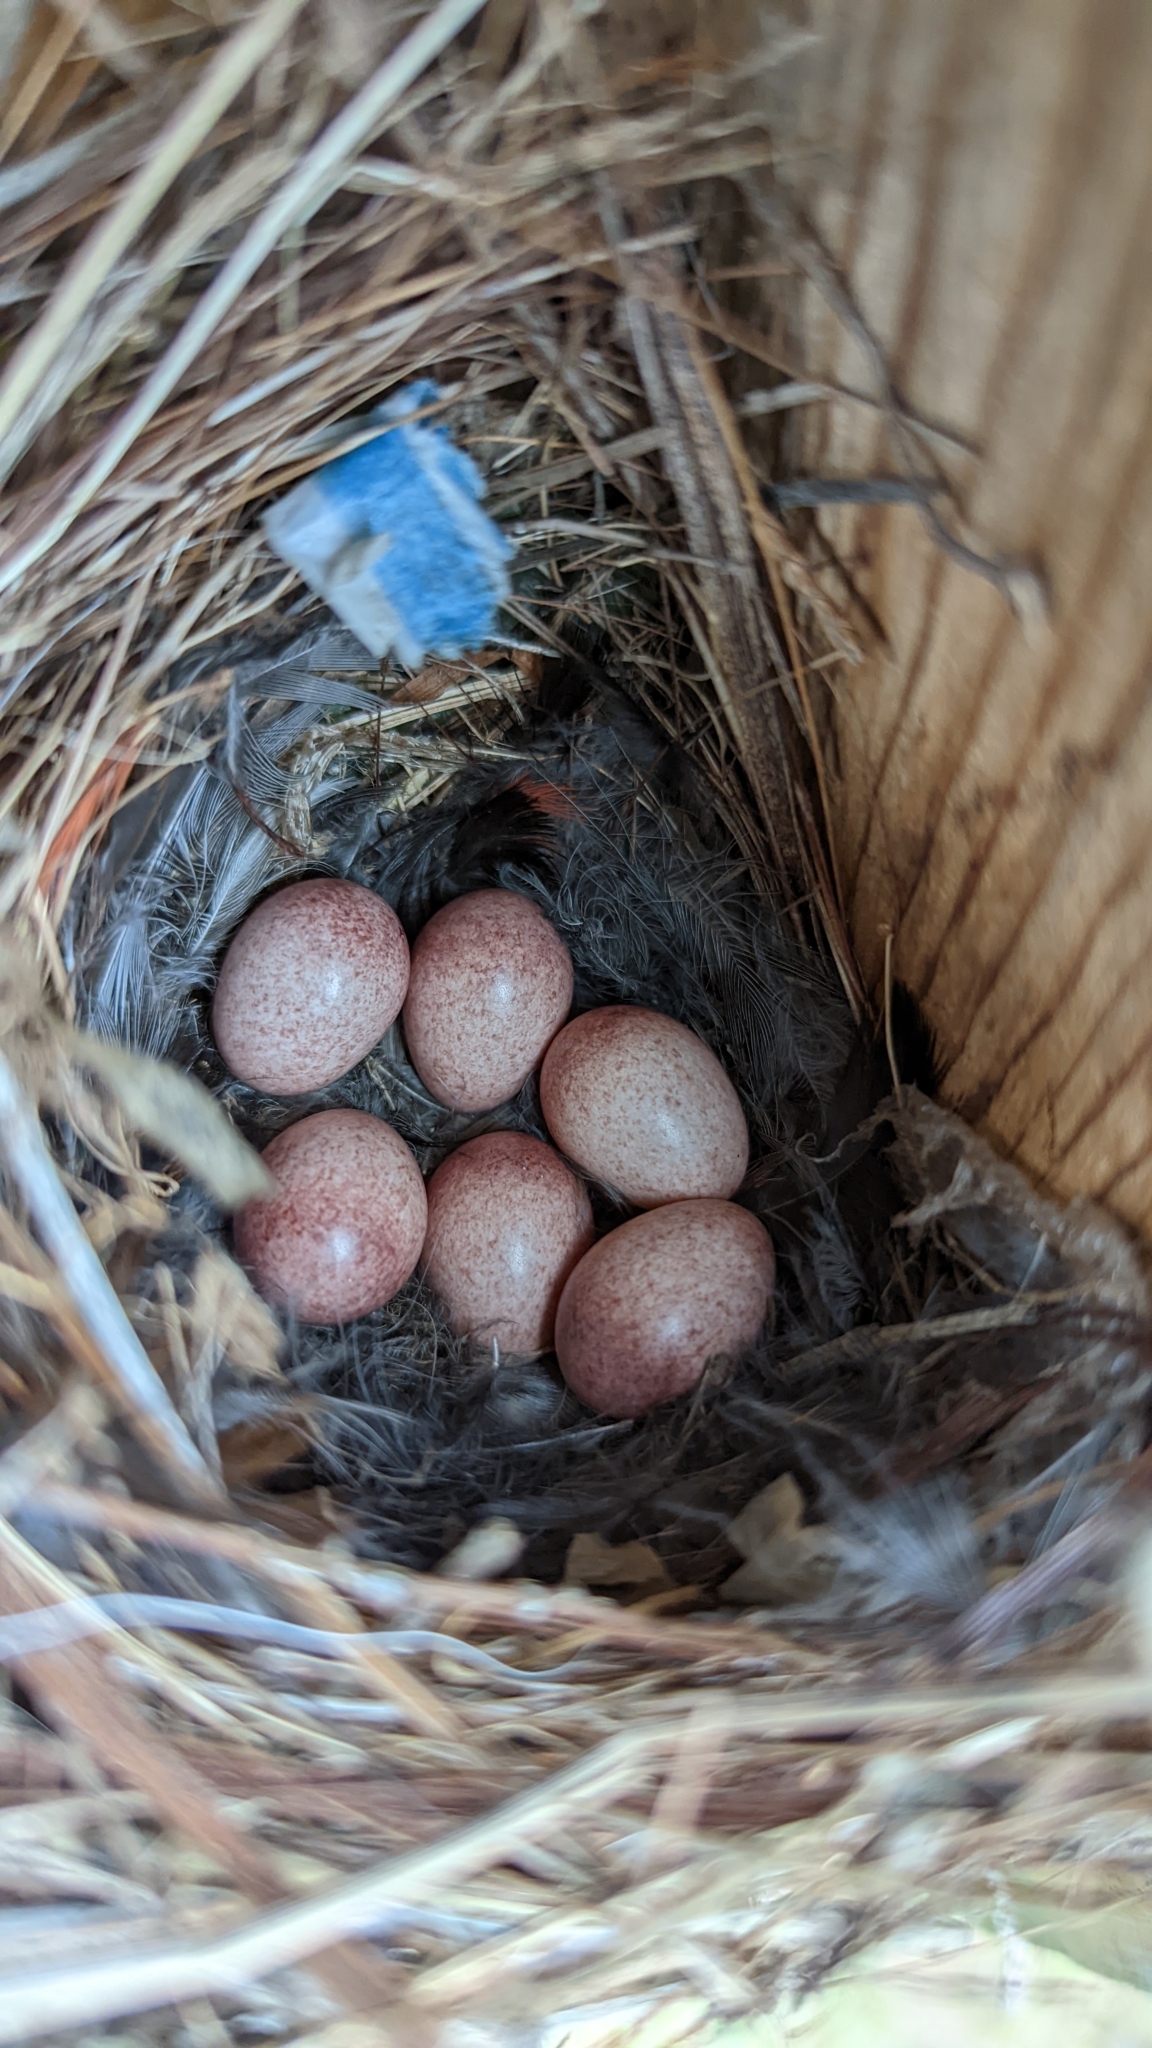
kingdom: Animalia
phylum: Chordata
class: Aves
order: Passeriformes
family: Troglodytidae
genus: Troglodytes
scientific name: Troglodytes aedon
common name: House wren
